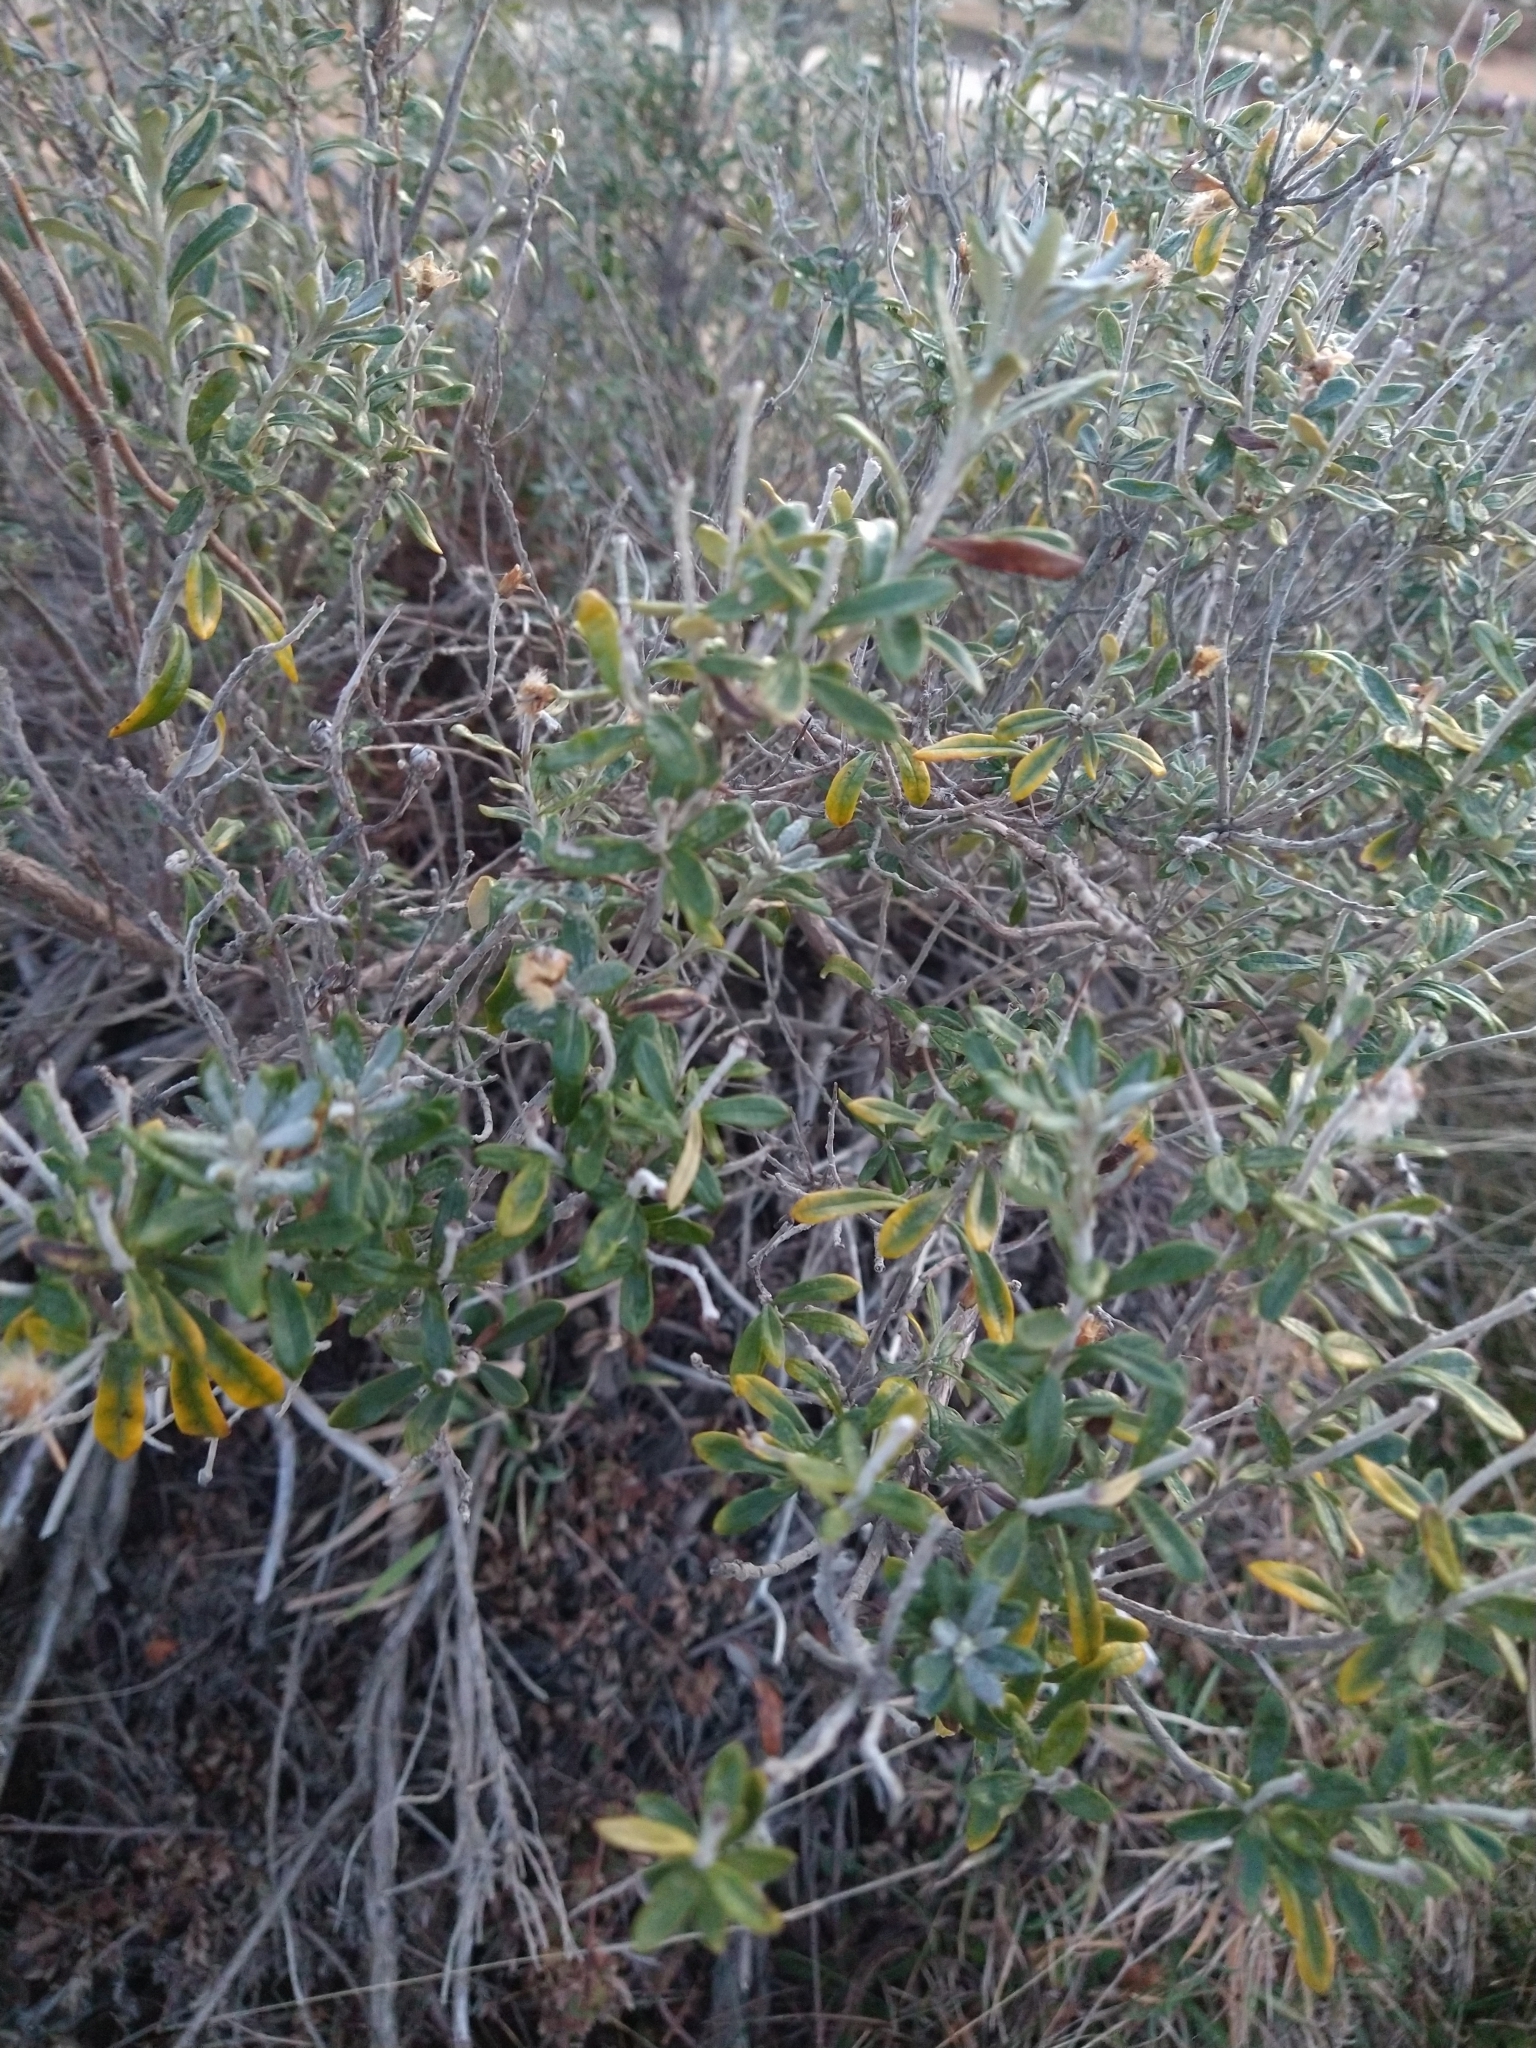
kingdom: Plantae
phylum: Tracheophyta
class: Magnoliopsida
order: Asterales
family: Asteraceae
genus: Chiliotrichum
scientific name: Chiliotrichum diffusum
